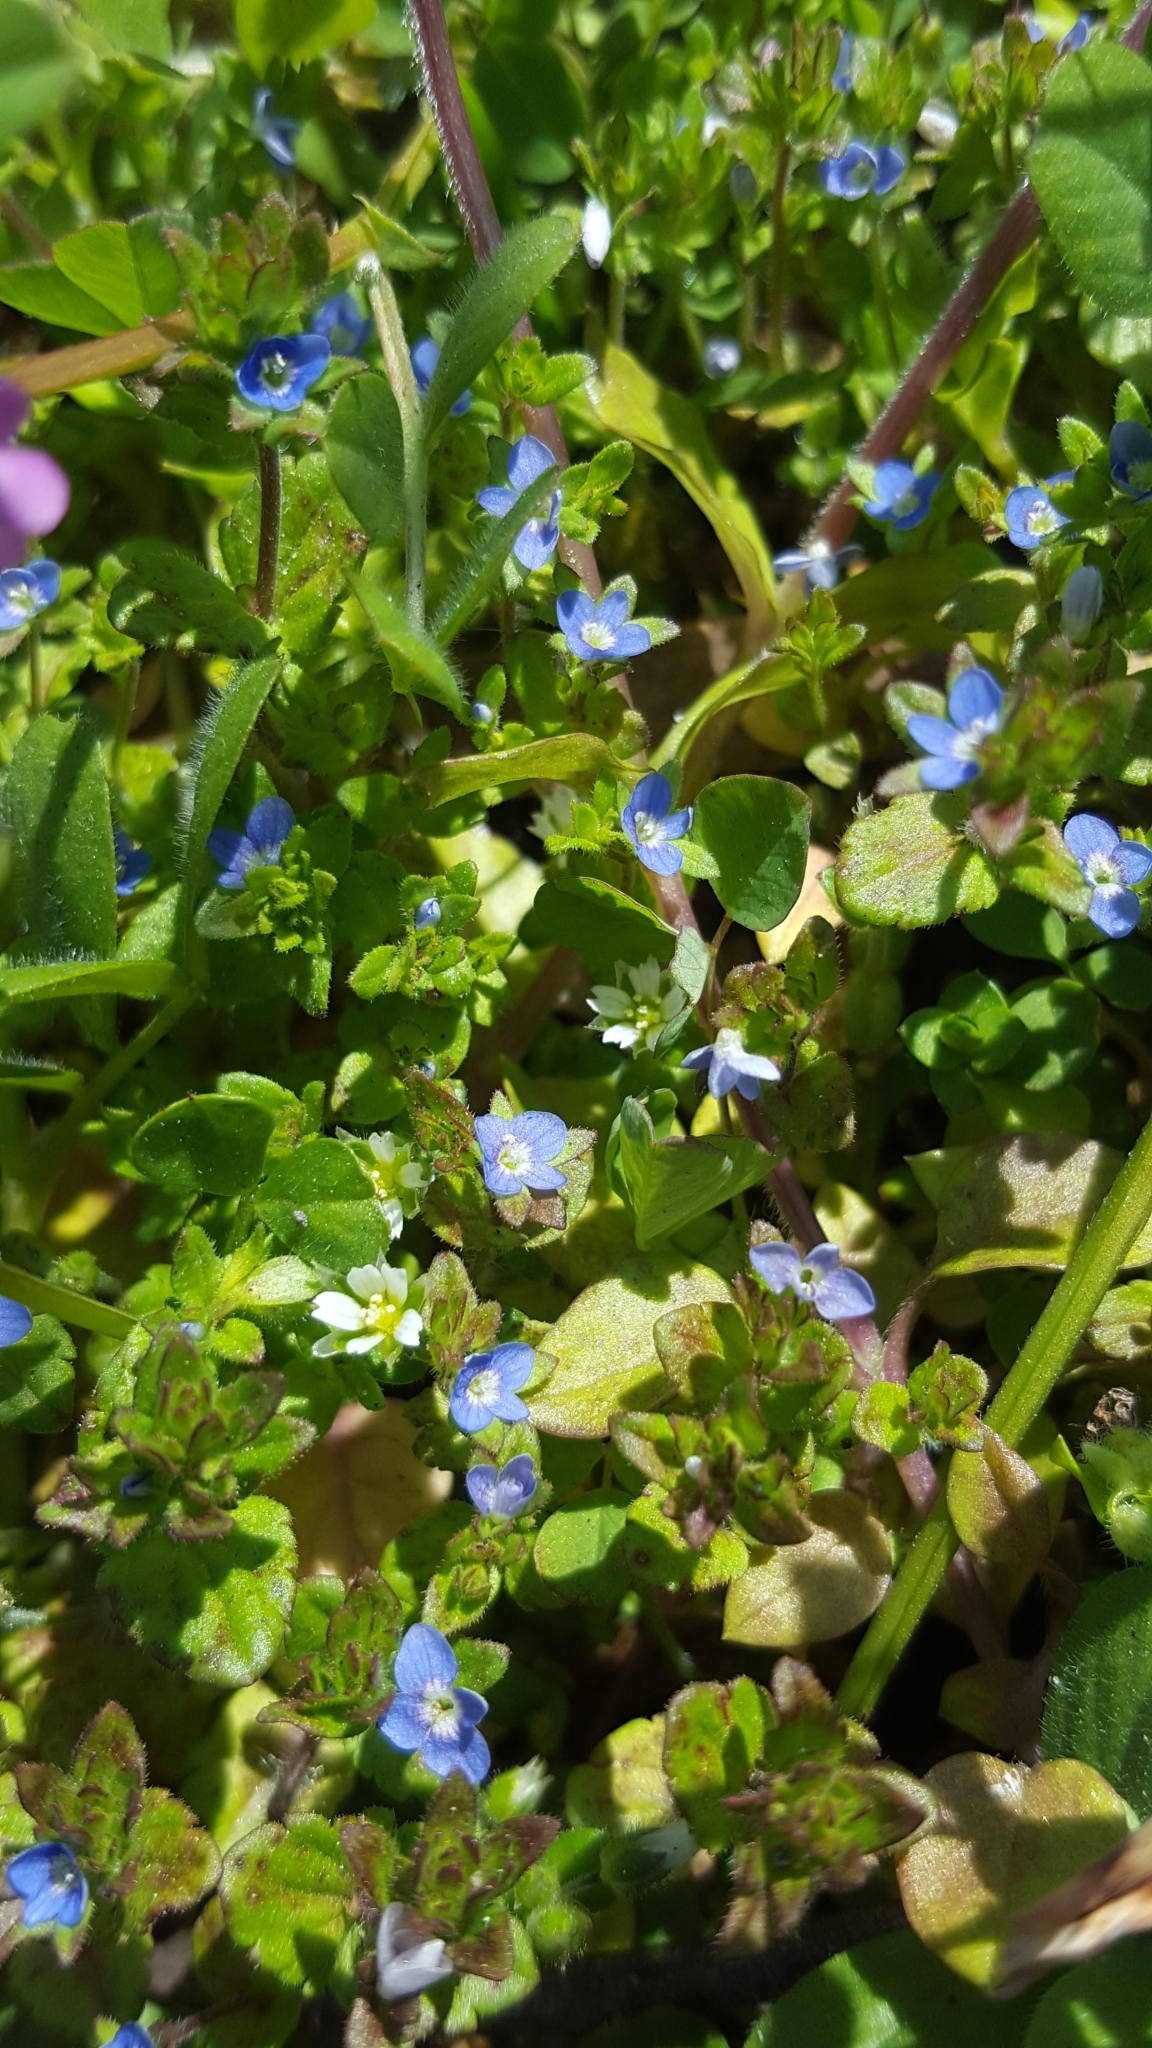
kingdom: Plantae
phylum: Tracheophyta
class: Magnoliopsida
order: Lamiales
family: Plantaginaceae
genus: Veronica
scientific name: Veronica arvensis
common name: Corn speedwell
